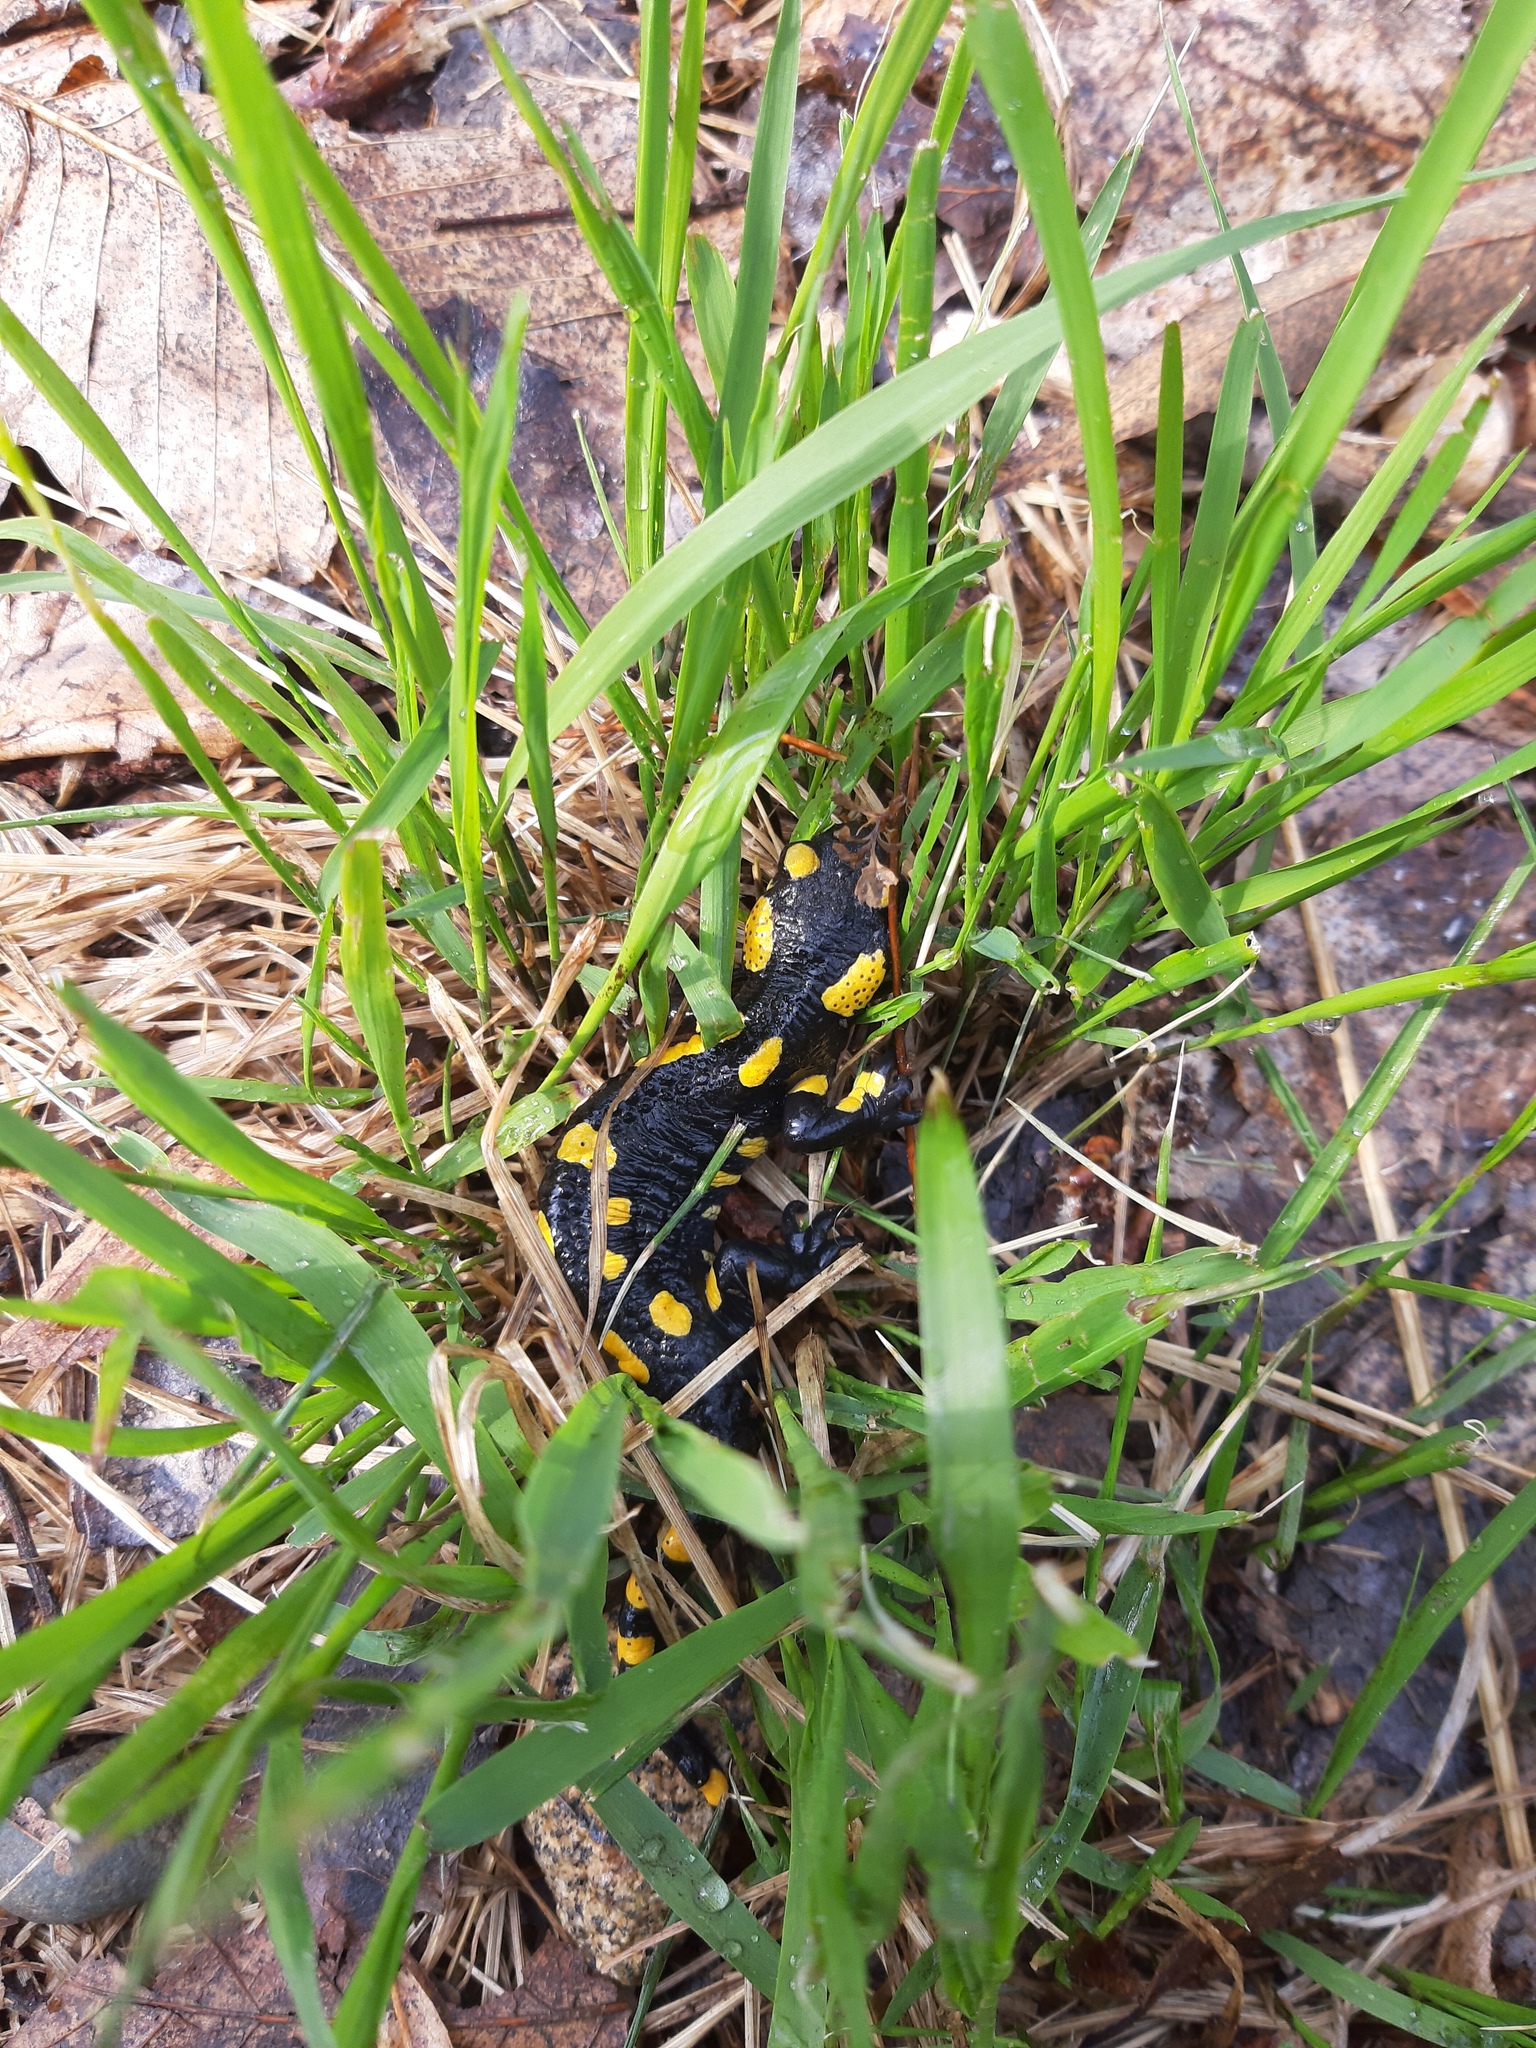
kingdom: Animalia
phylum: Chordata
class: Amphibia
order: Caudata
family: Salamandridae
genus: Salamandra
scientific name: Salamandra salamandra
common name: Fire salamander
